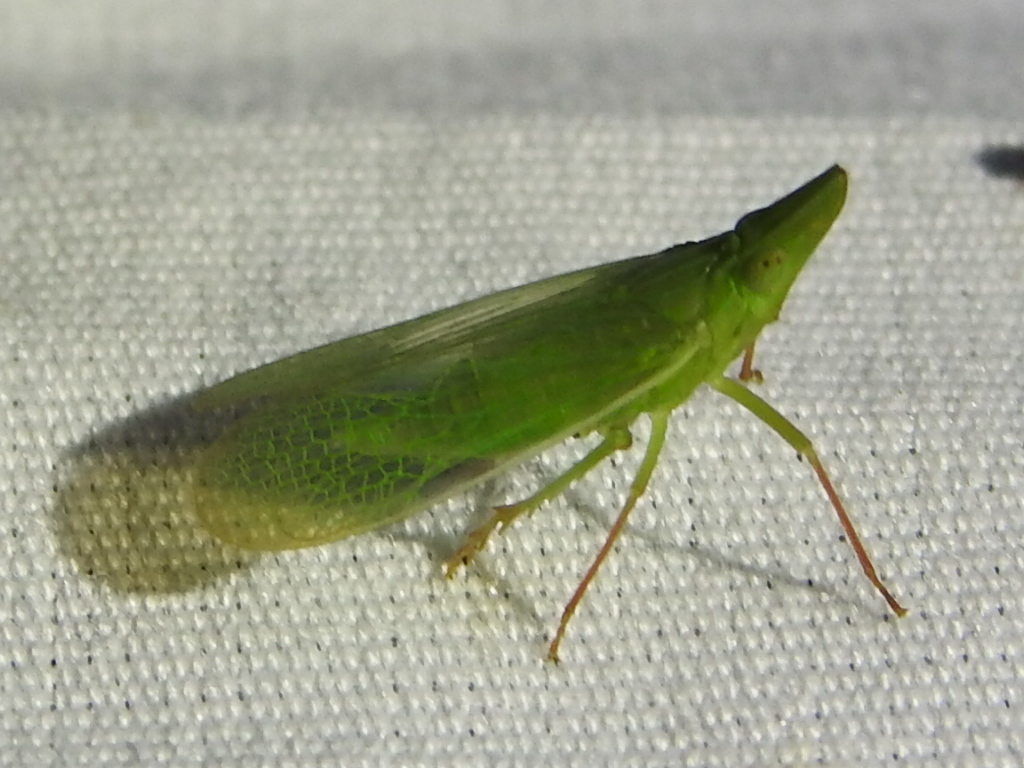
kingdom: Animalia
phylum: Arthropoda
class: Insecta
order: Hemiptera
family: Dictyopharidae
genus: Rhynchomitra
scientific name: Rhynchomitra microrhina
